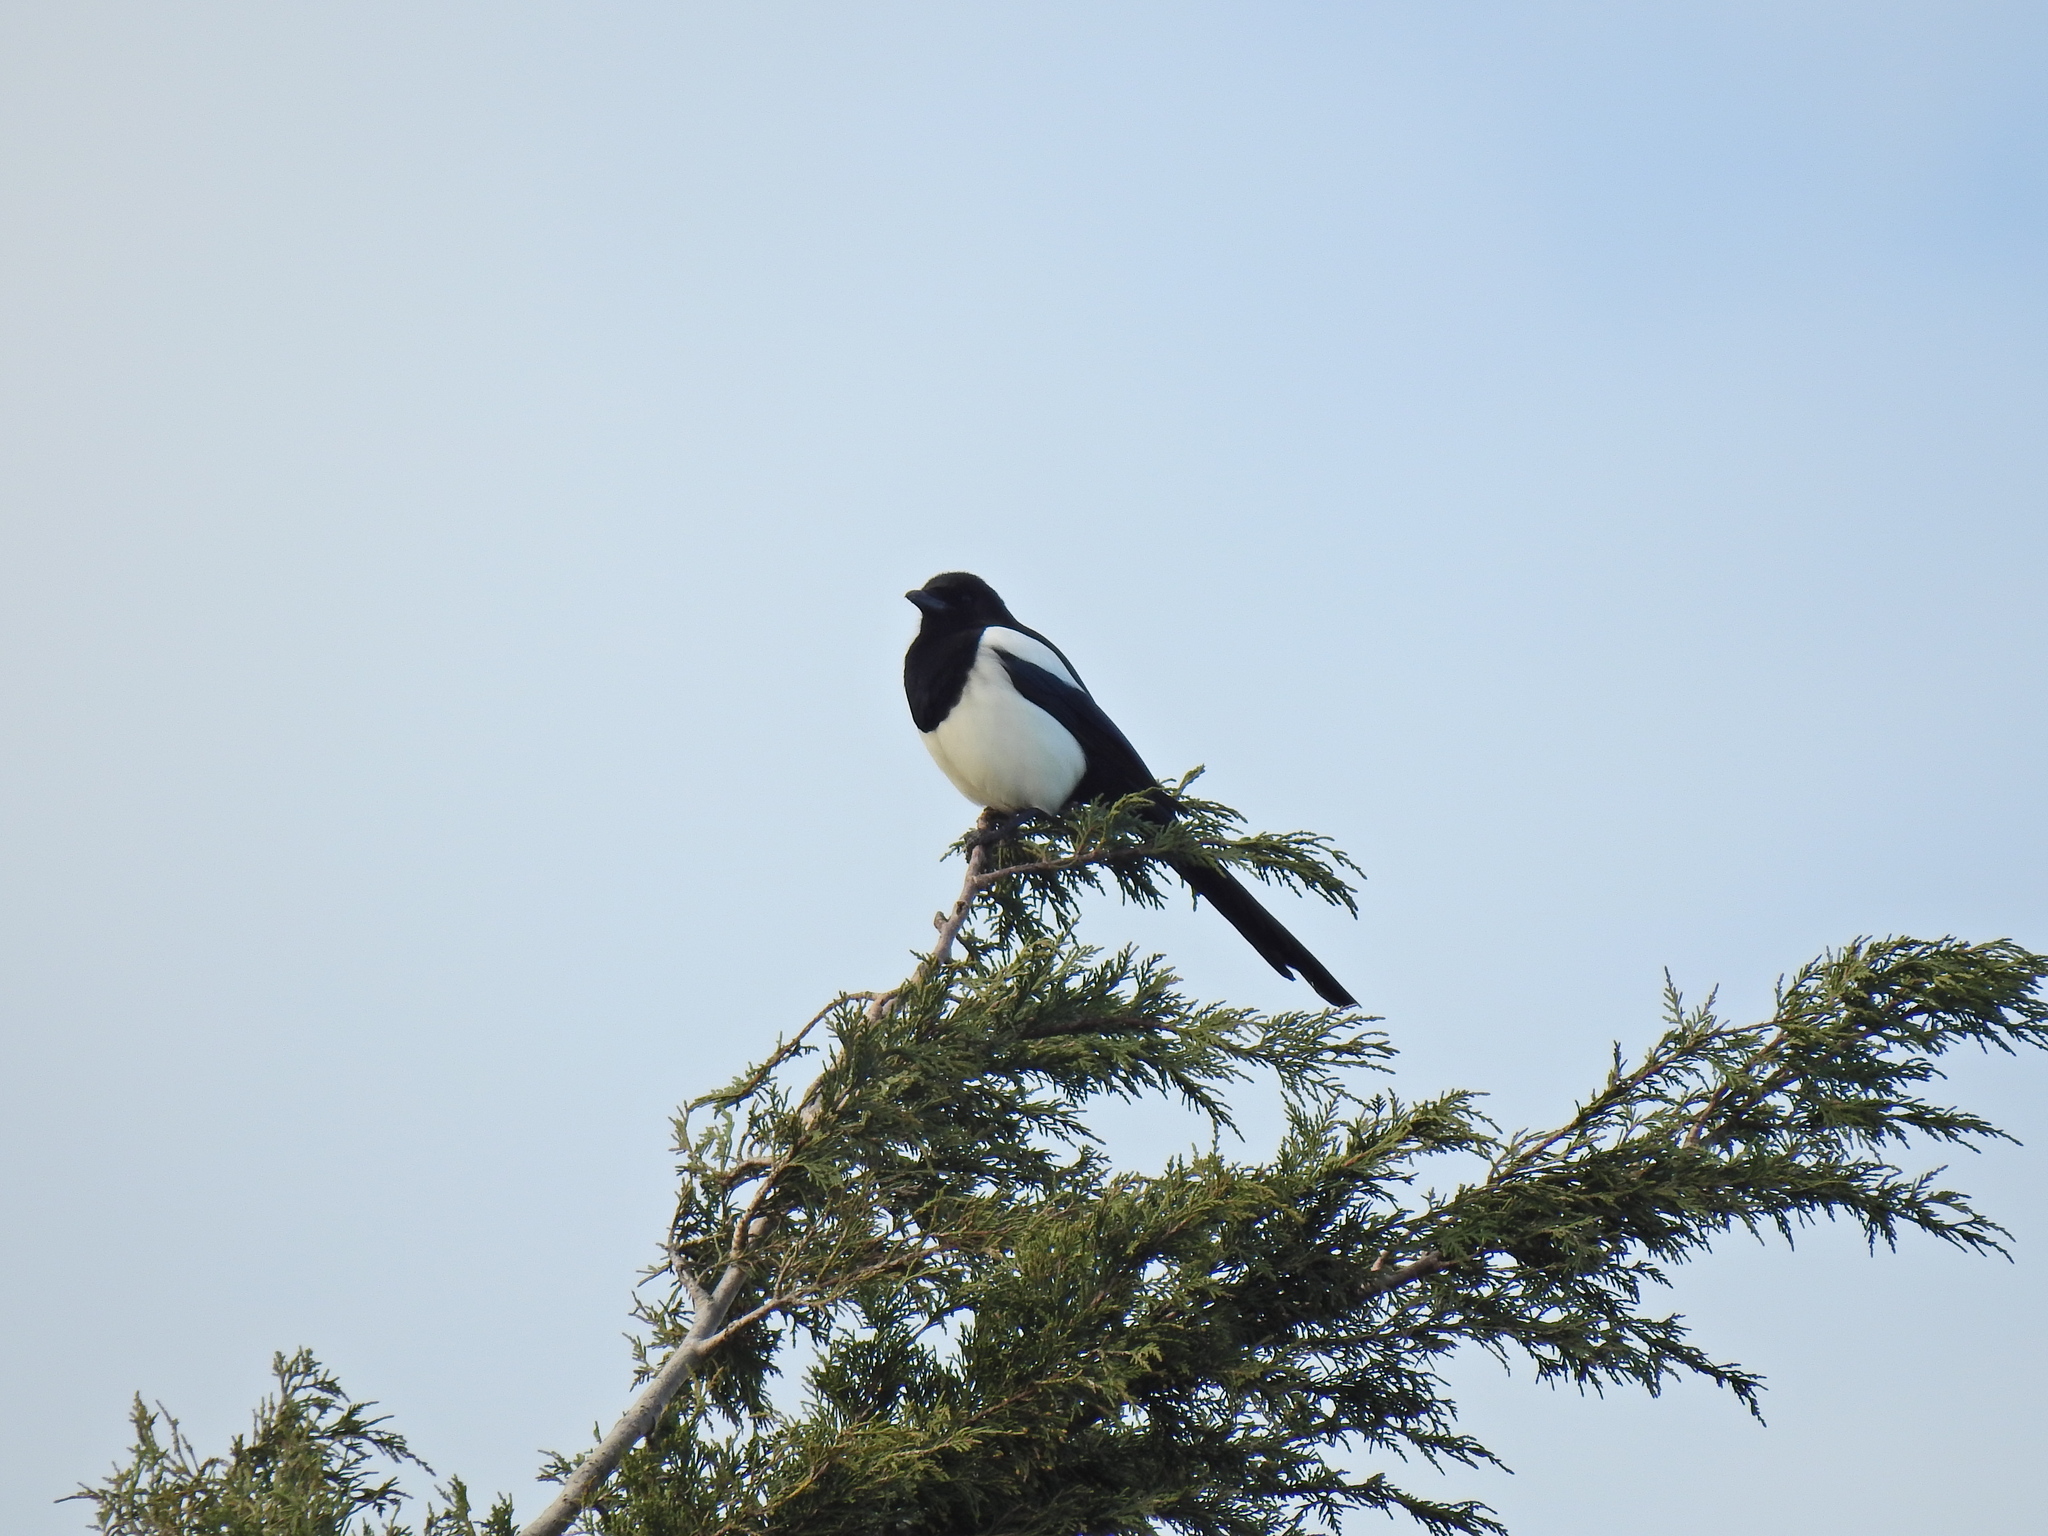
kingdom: Animalia
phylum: Chordata
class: Aves
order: Passeriformes
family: Corvidae
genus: Pica
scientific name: Pica pica
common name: Eurasian magpie
